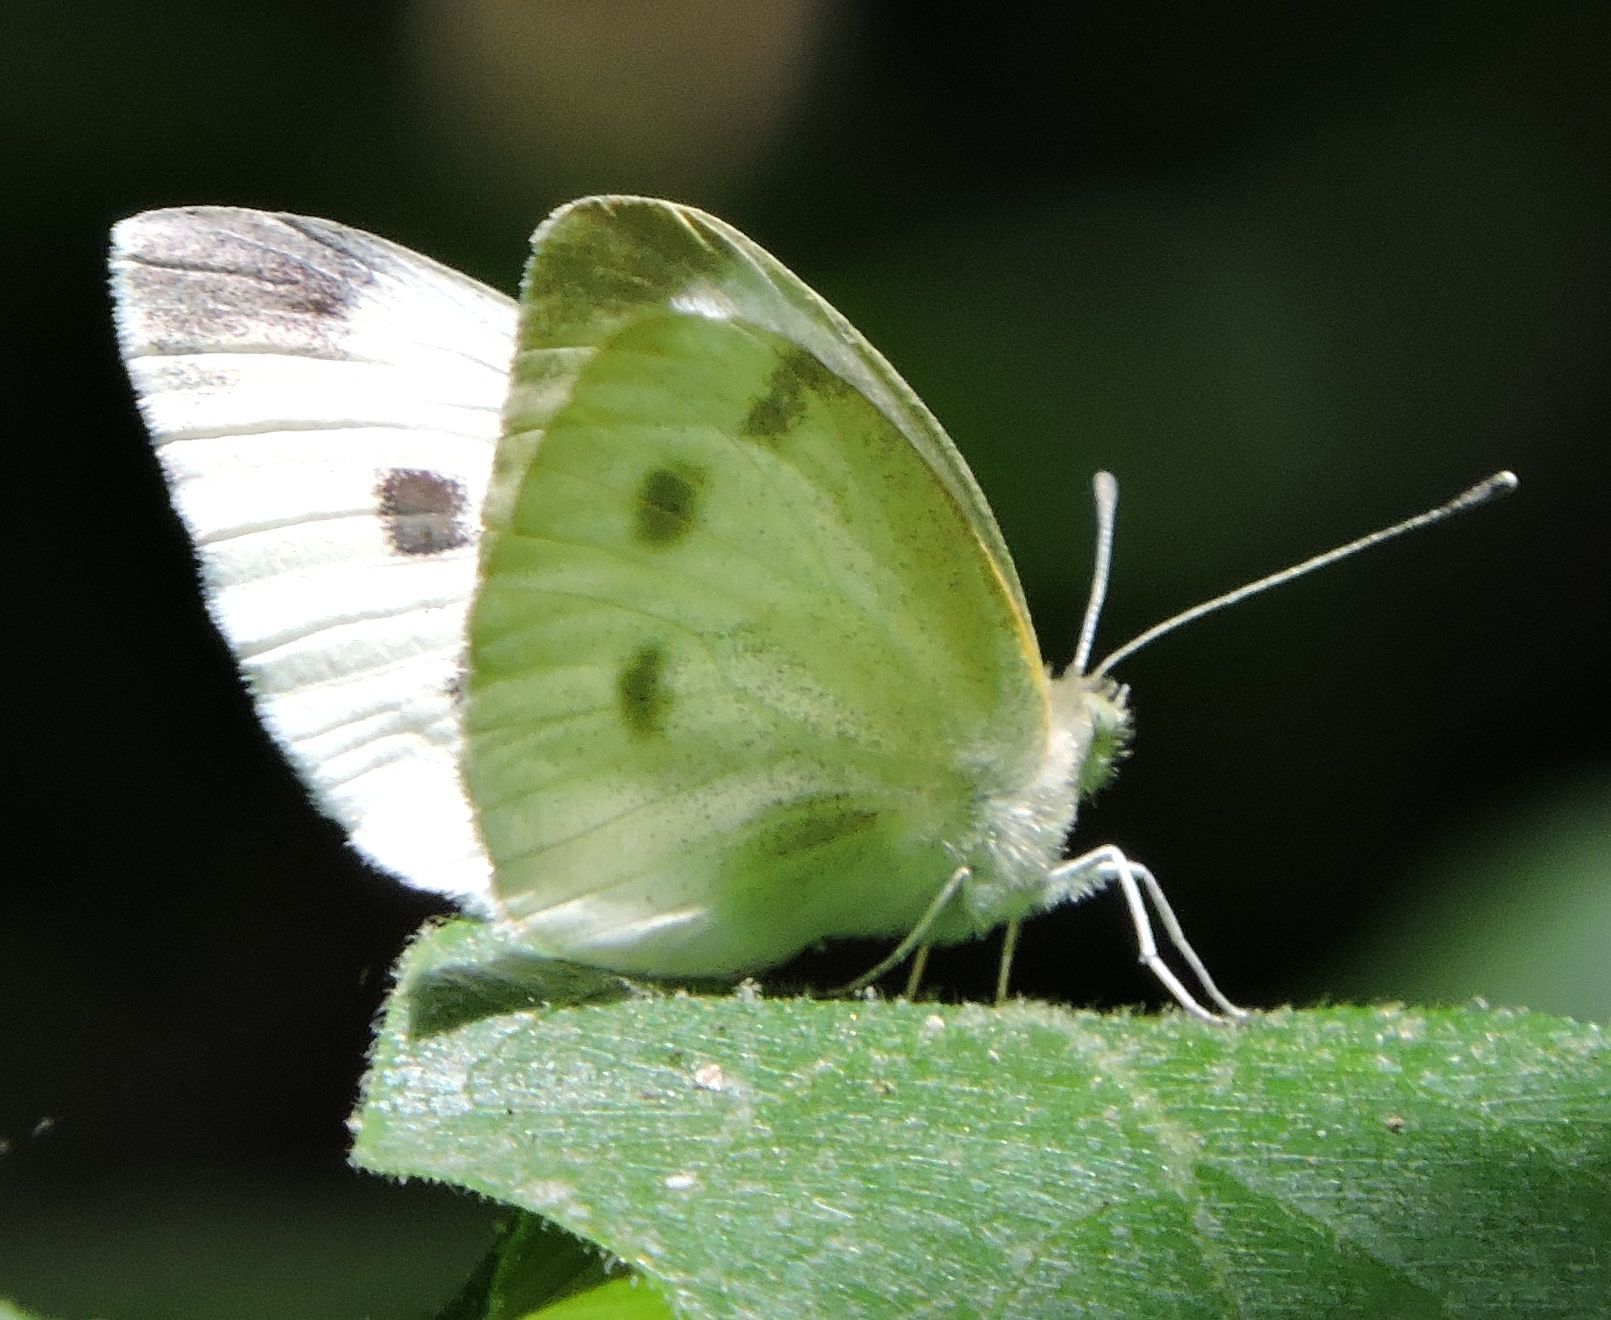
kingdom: Animalia
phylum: Arthropoda
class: Insecta
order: Lepidoptera
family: Pieridae
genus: Pieris
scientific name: Pieris rapae
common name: Small white
